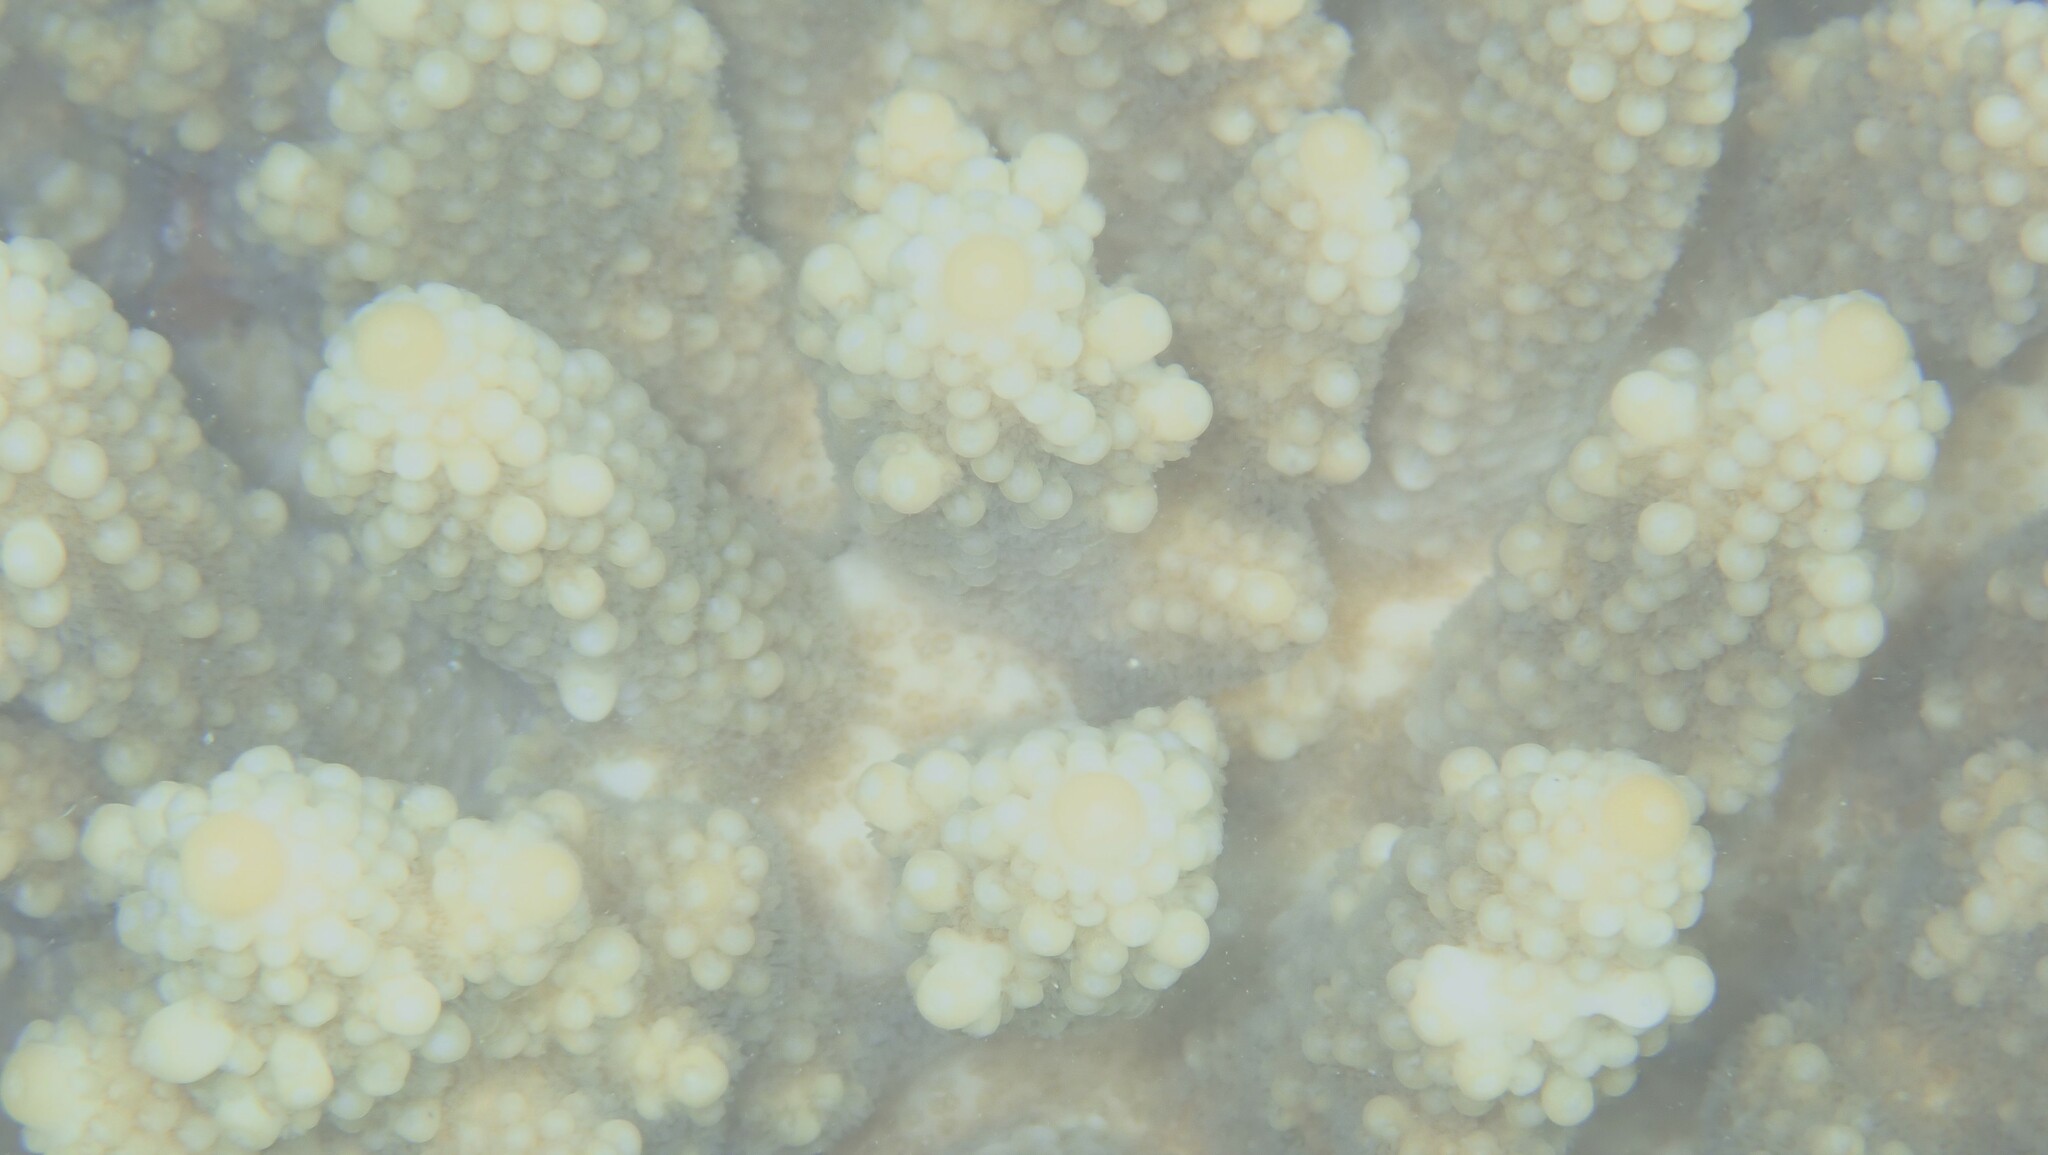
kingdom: Animalia
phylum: Cnidaria
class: Anthozoa
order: Scleractinia
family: Acroporidae
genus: Acropora
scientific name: Acropora gemmifera
